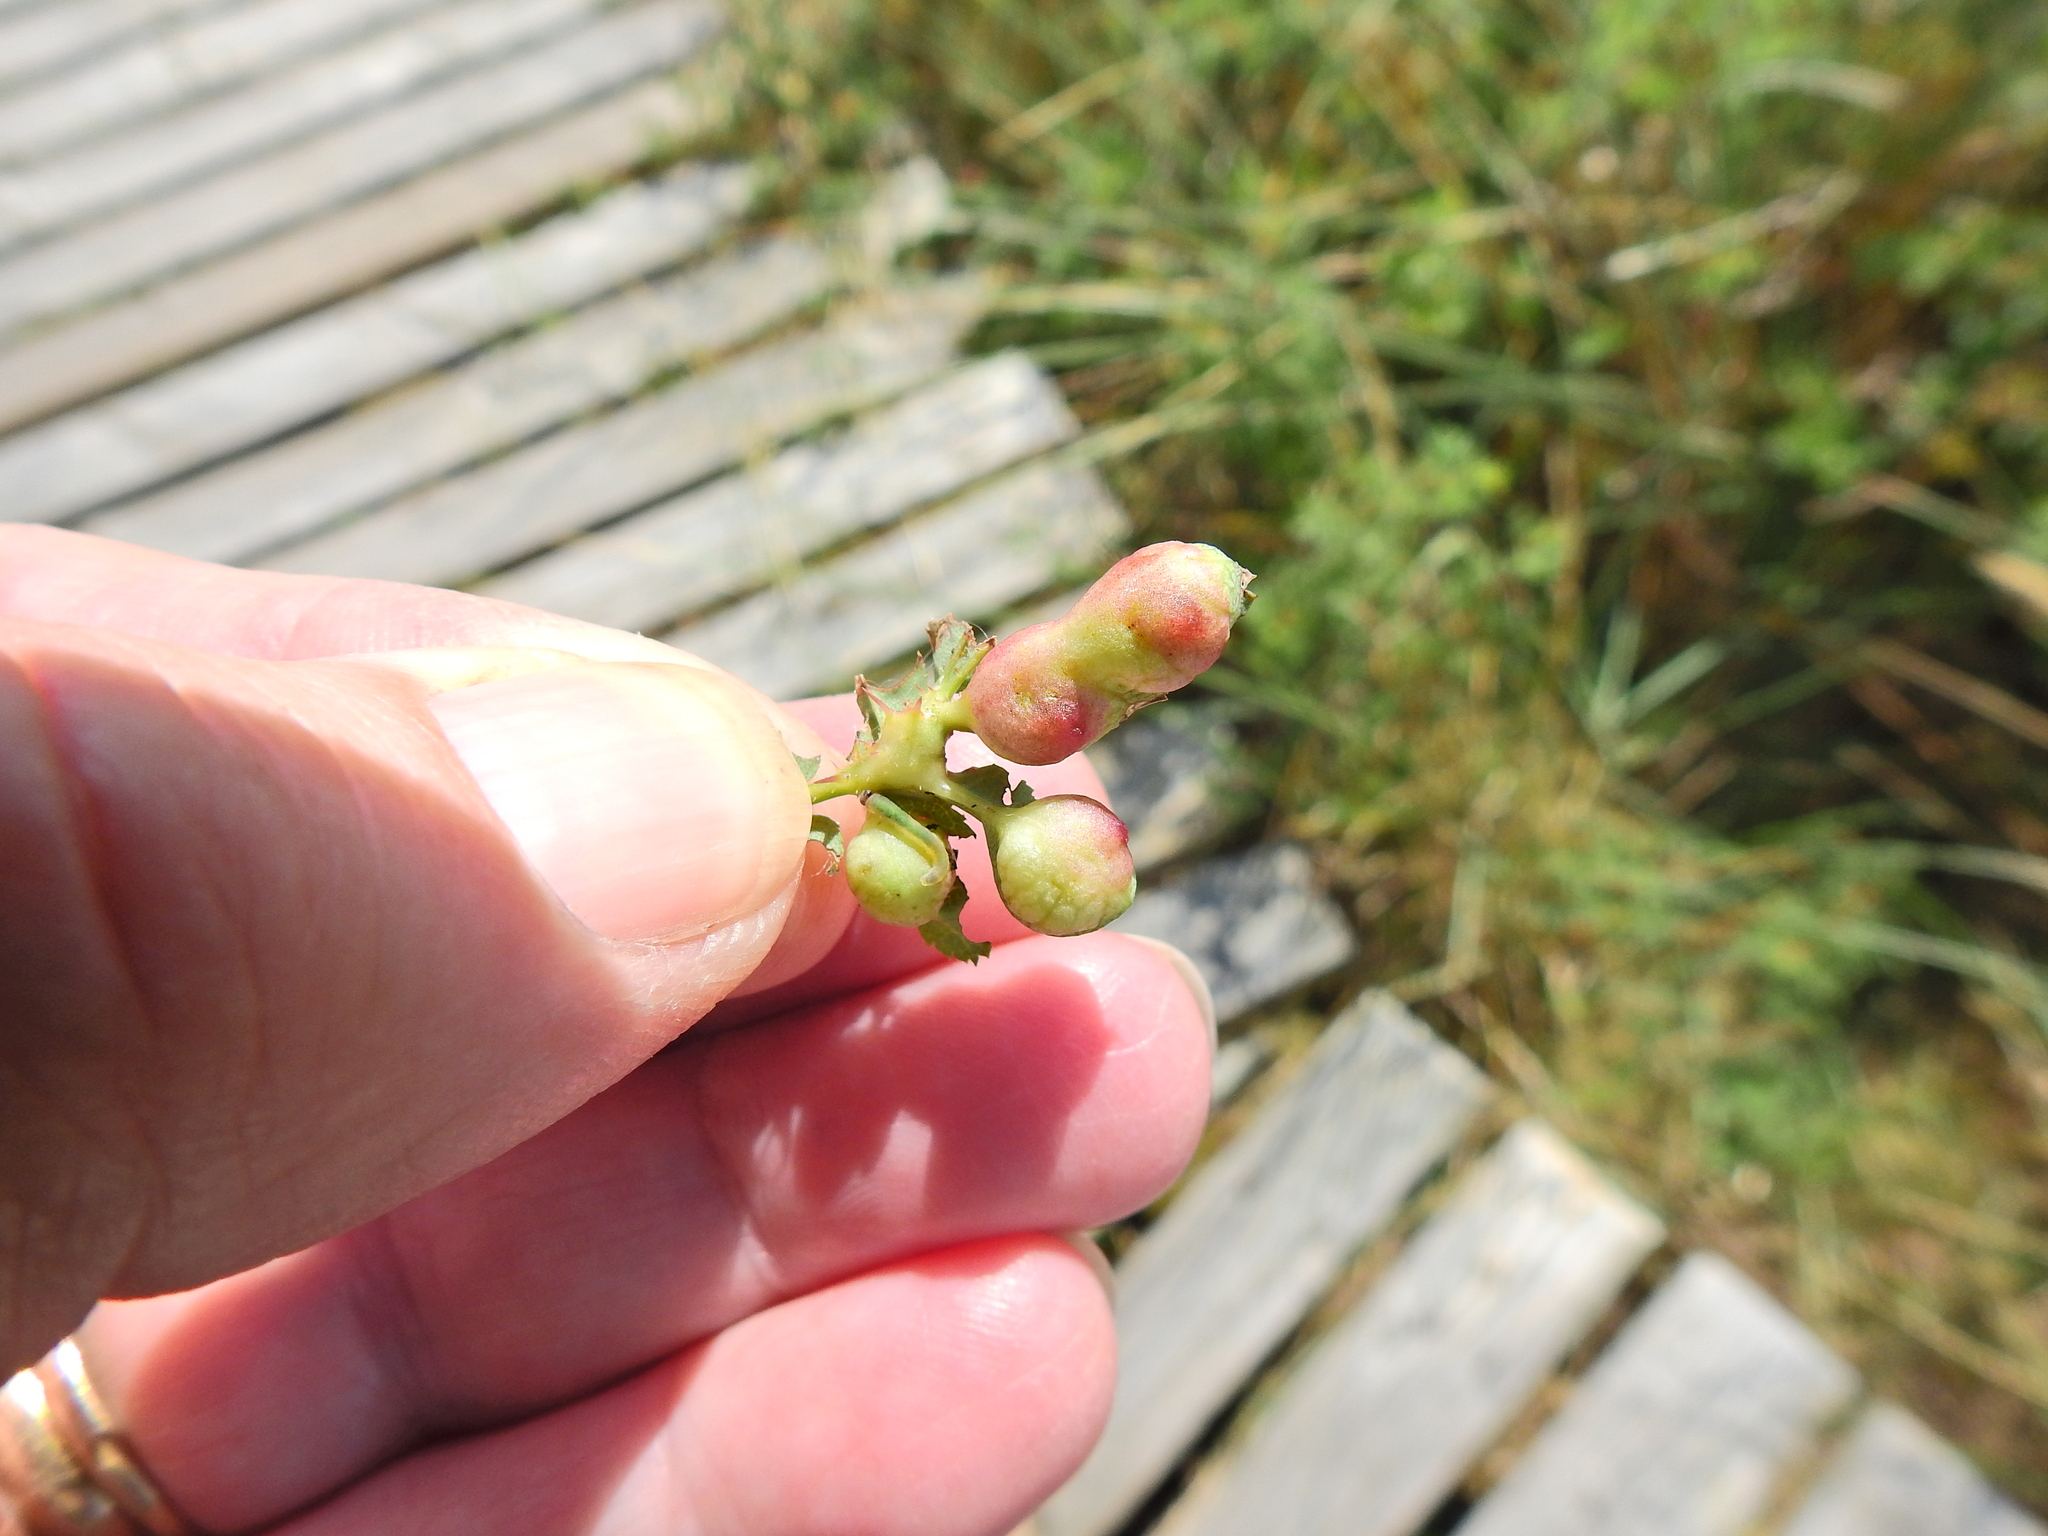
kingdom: Animalia
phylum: Arthropoda
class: Insecta
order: Hymenoptera
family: Cynipidae
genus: Diplolepis
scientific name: Diplolepis spinosissimae
